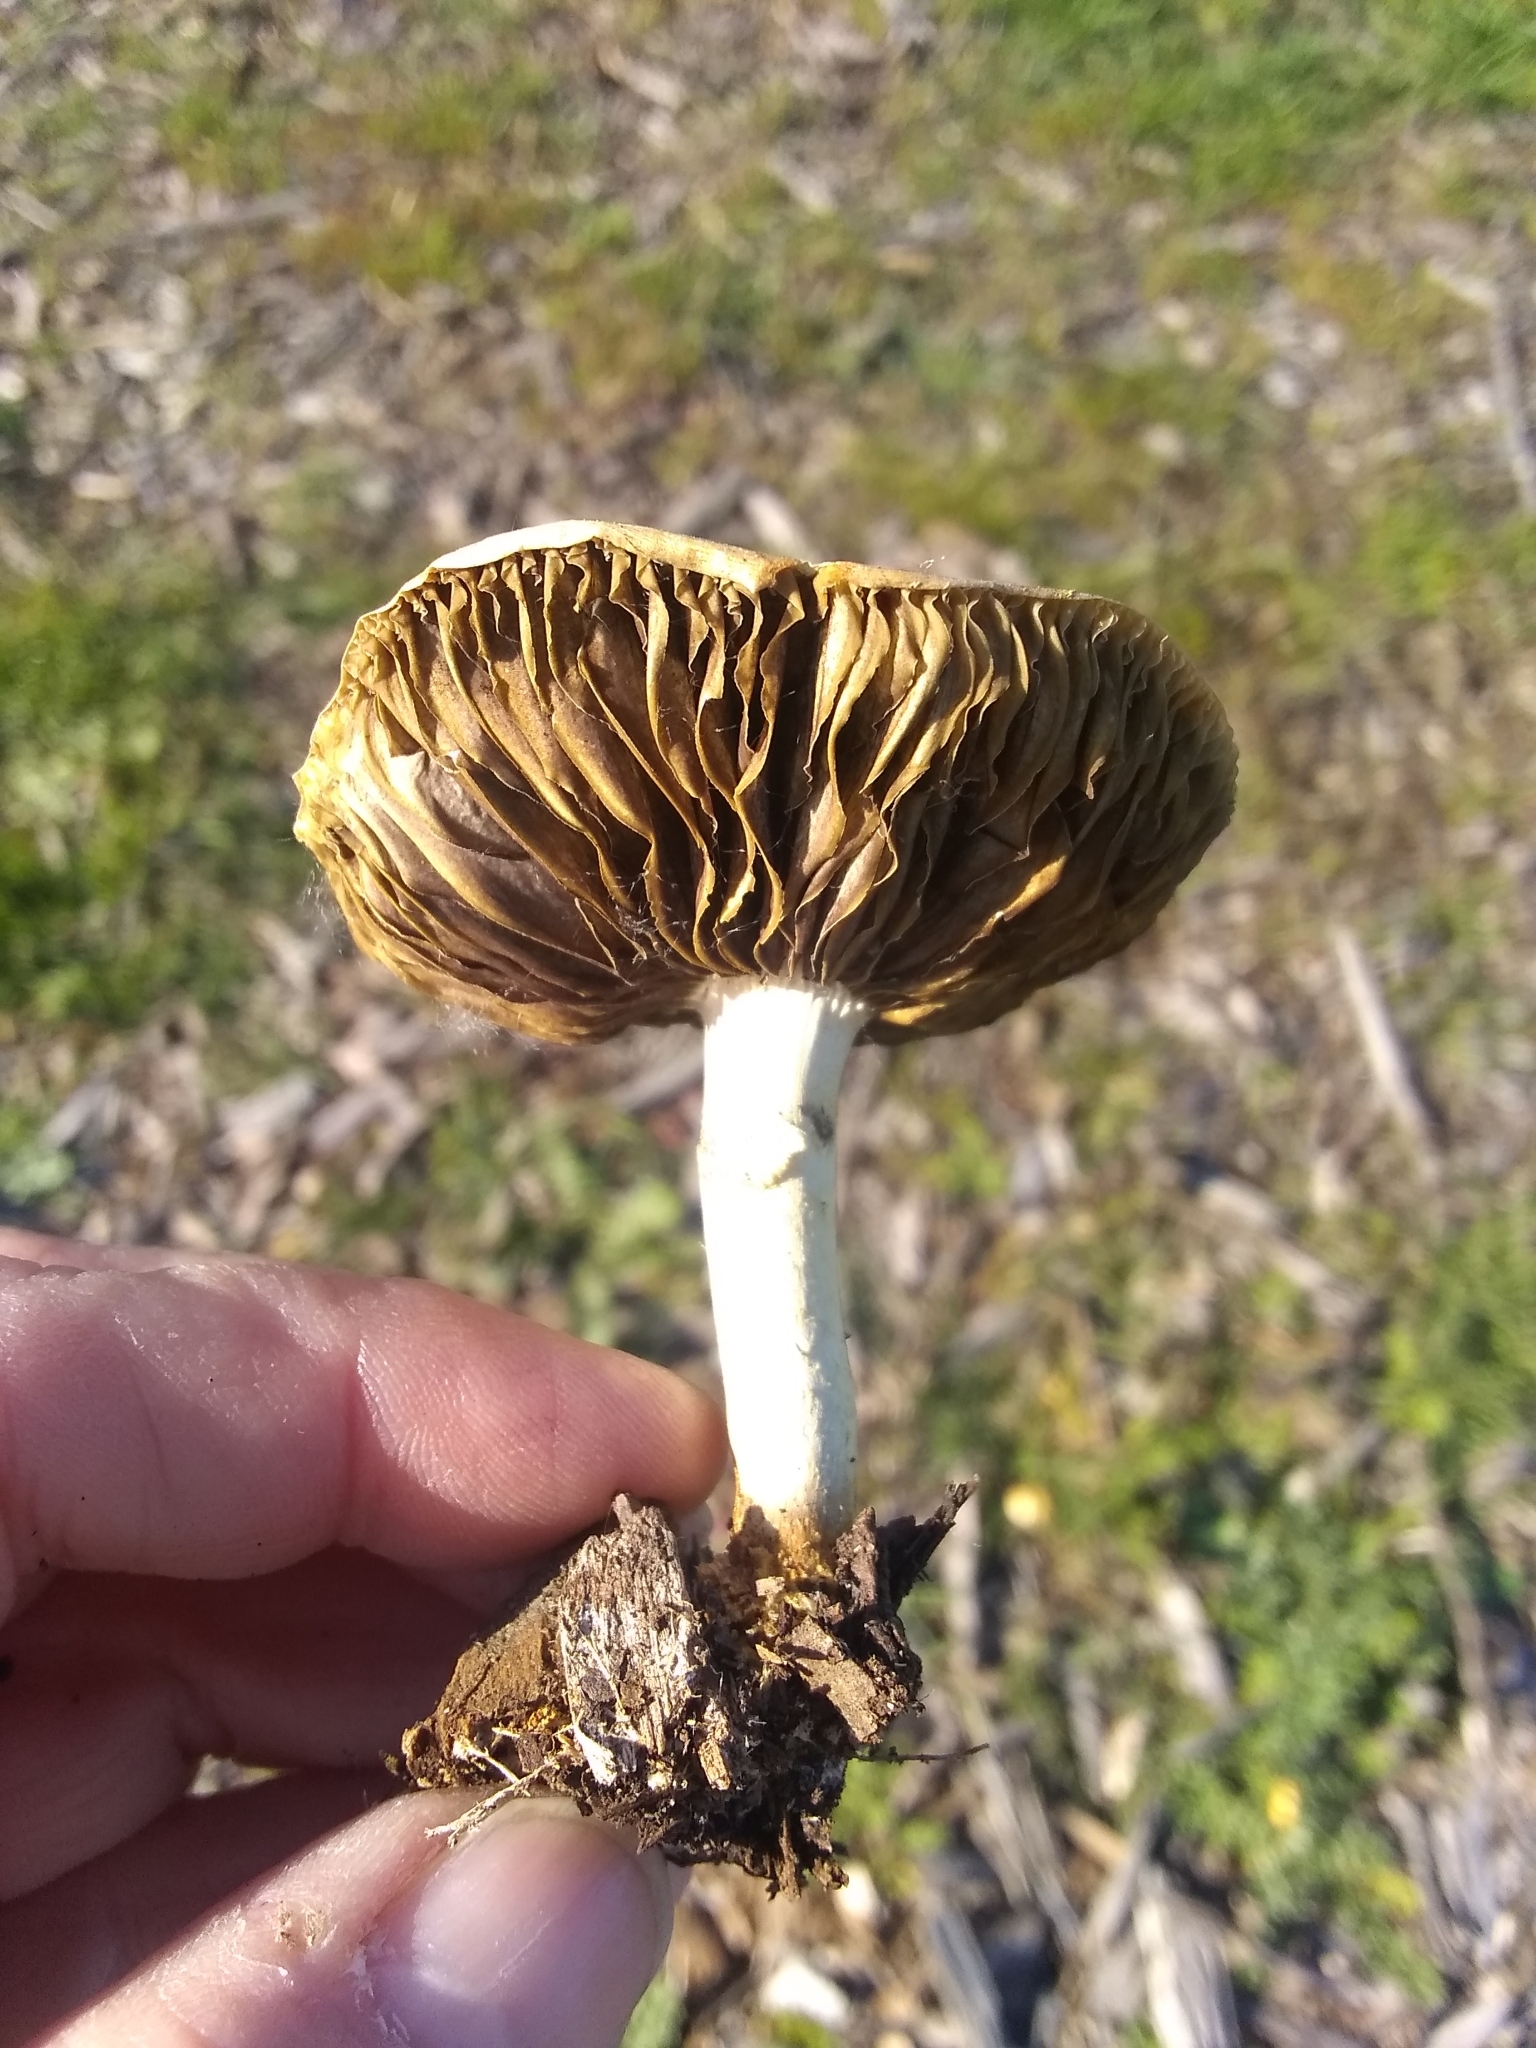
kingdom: Fungi
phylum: Basidiomycota
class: Agaricomycetes
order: Agaricales
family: Strophariaceae
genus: Leratiomyces
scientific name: Leratiomyces percevalii
